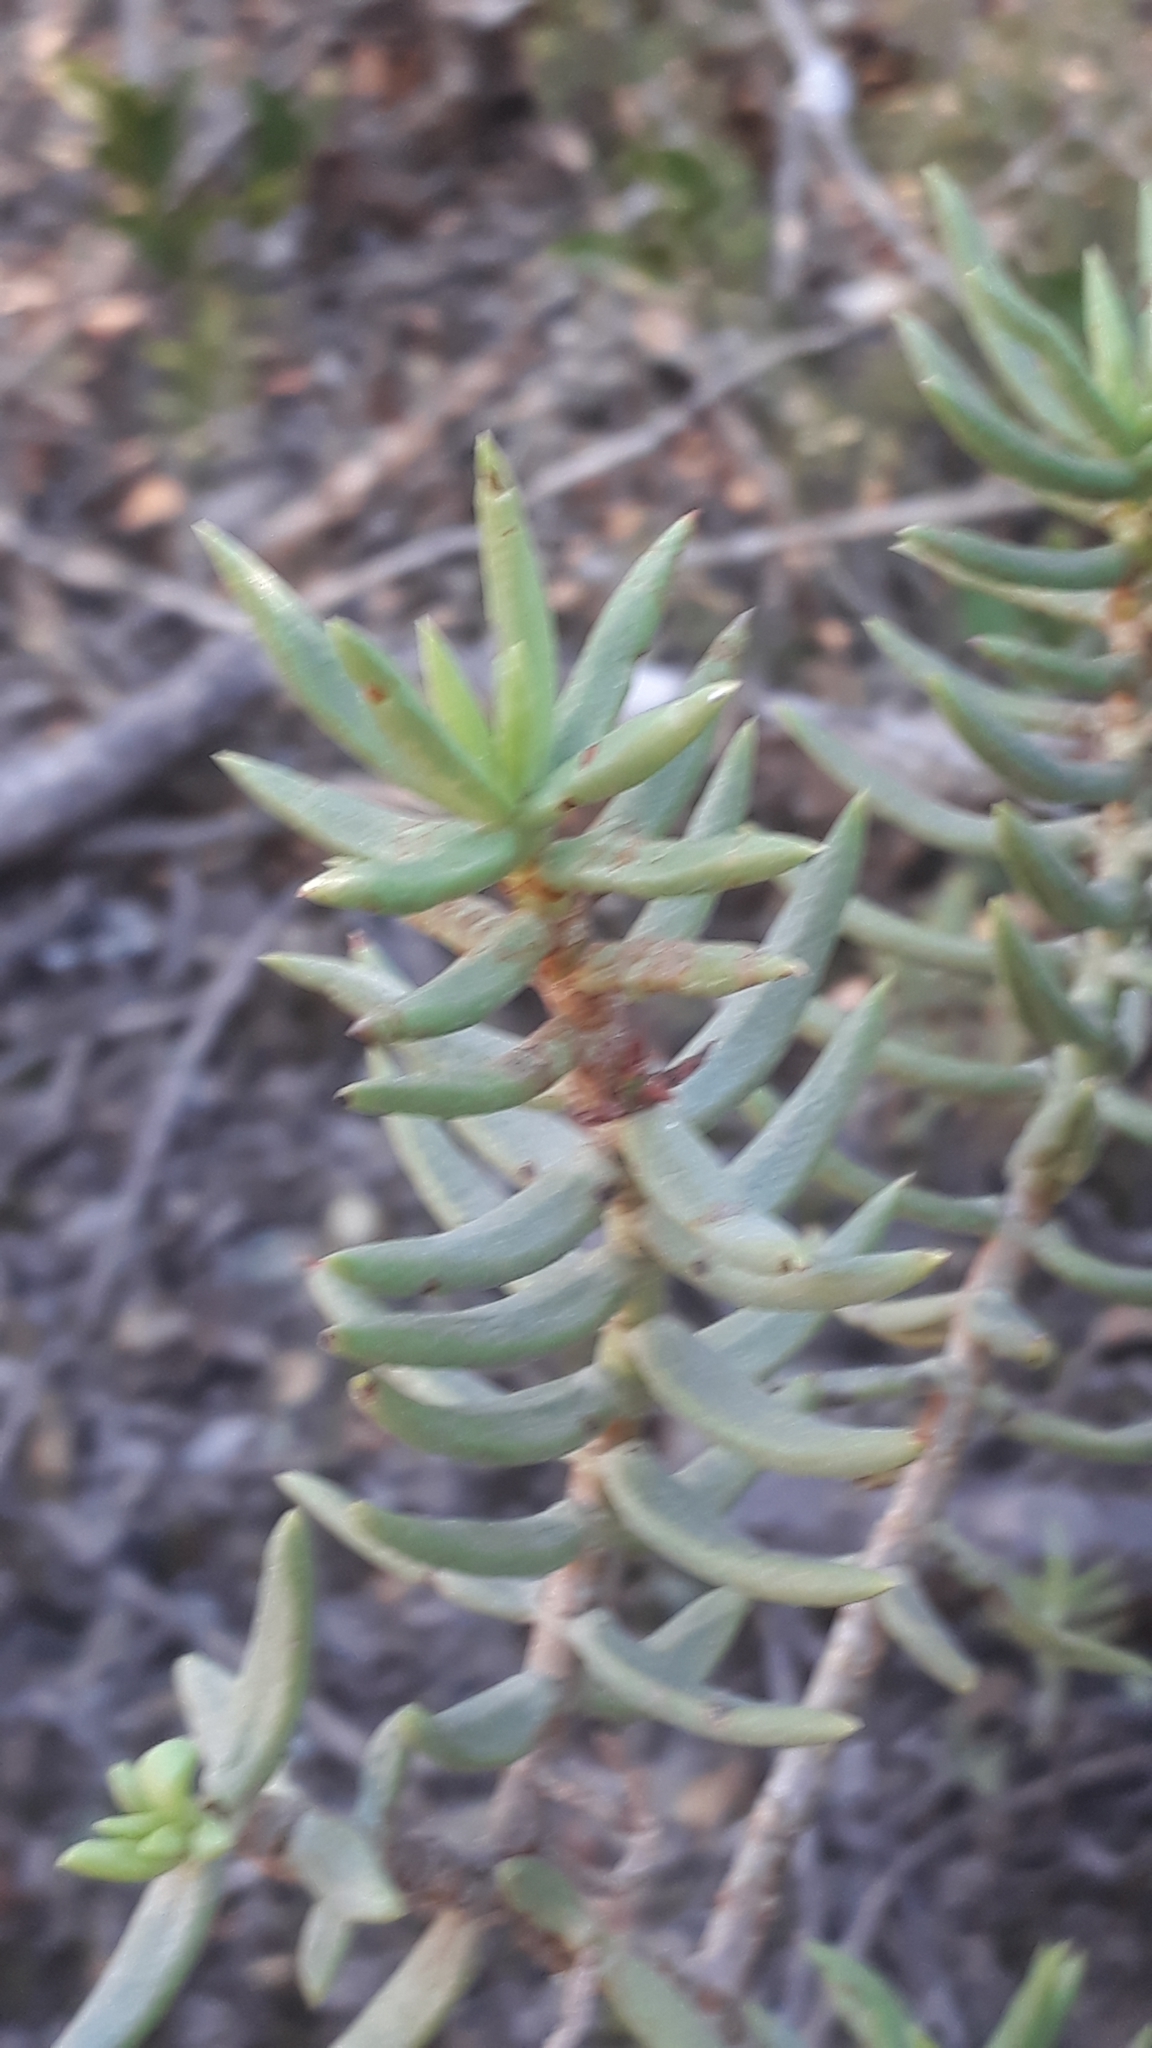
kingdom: Plantae
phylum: Tracheophyta
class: Magnoliopsida
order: Saxifragales
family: Crassulaceae
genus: Crassula
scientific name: Crassula tetragona
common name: Pygmyweed
